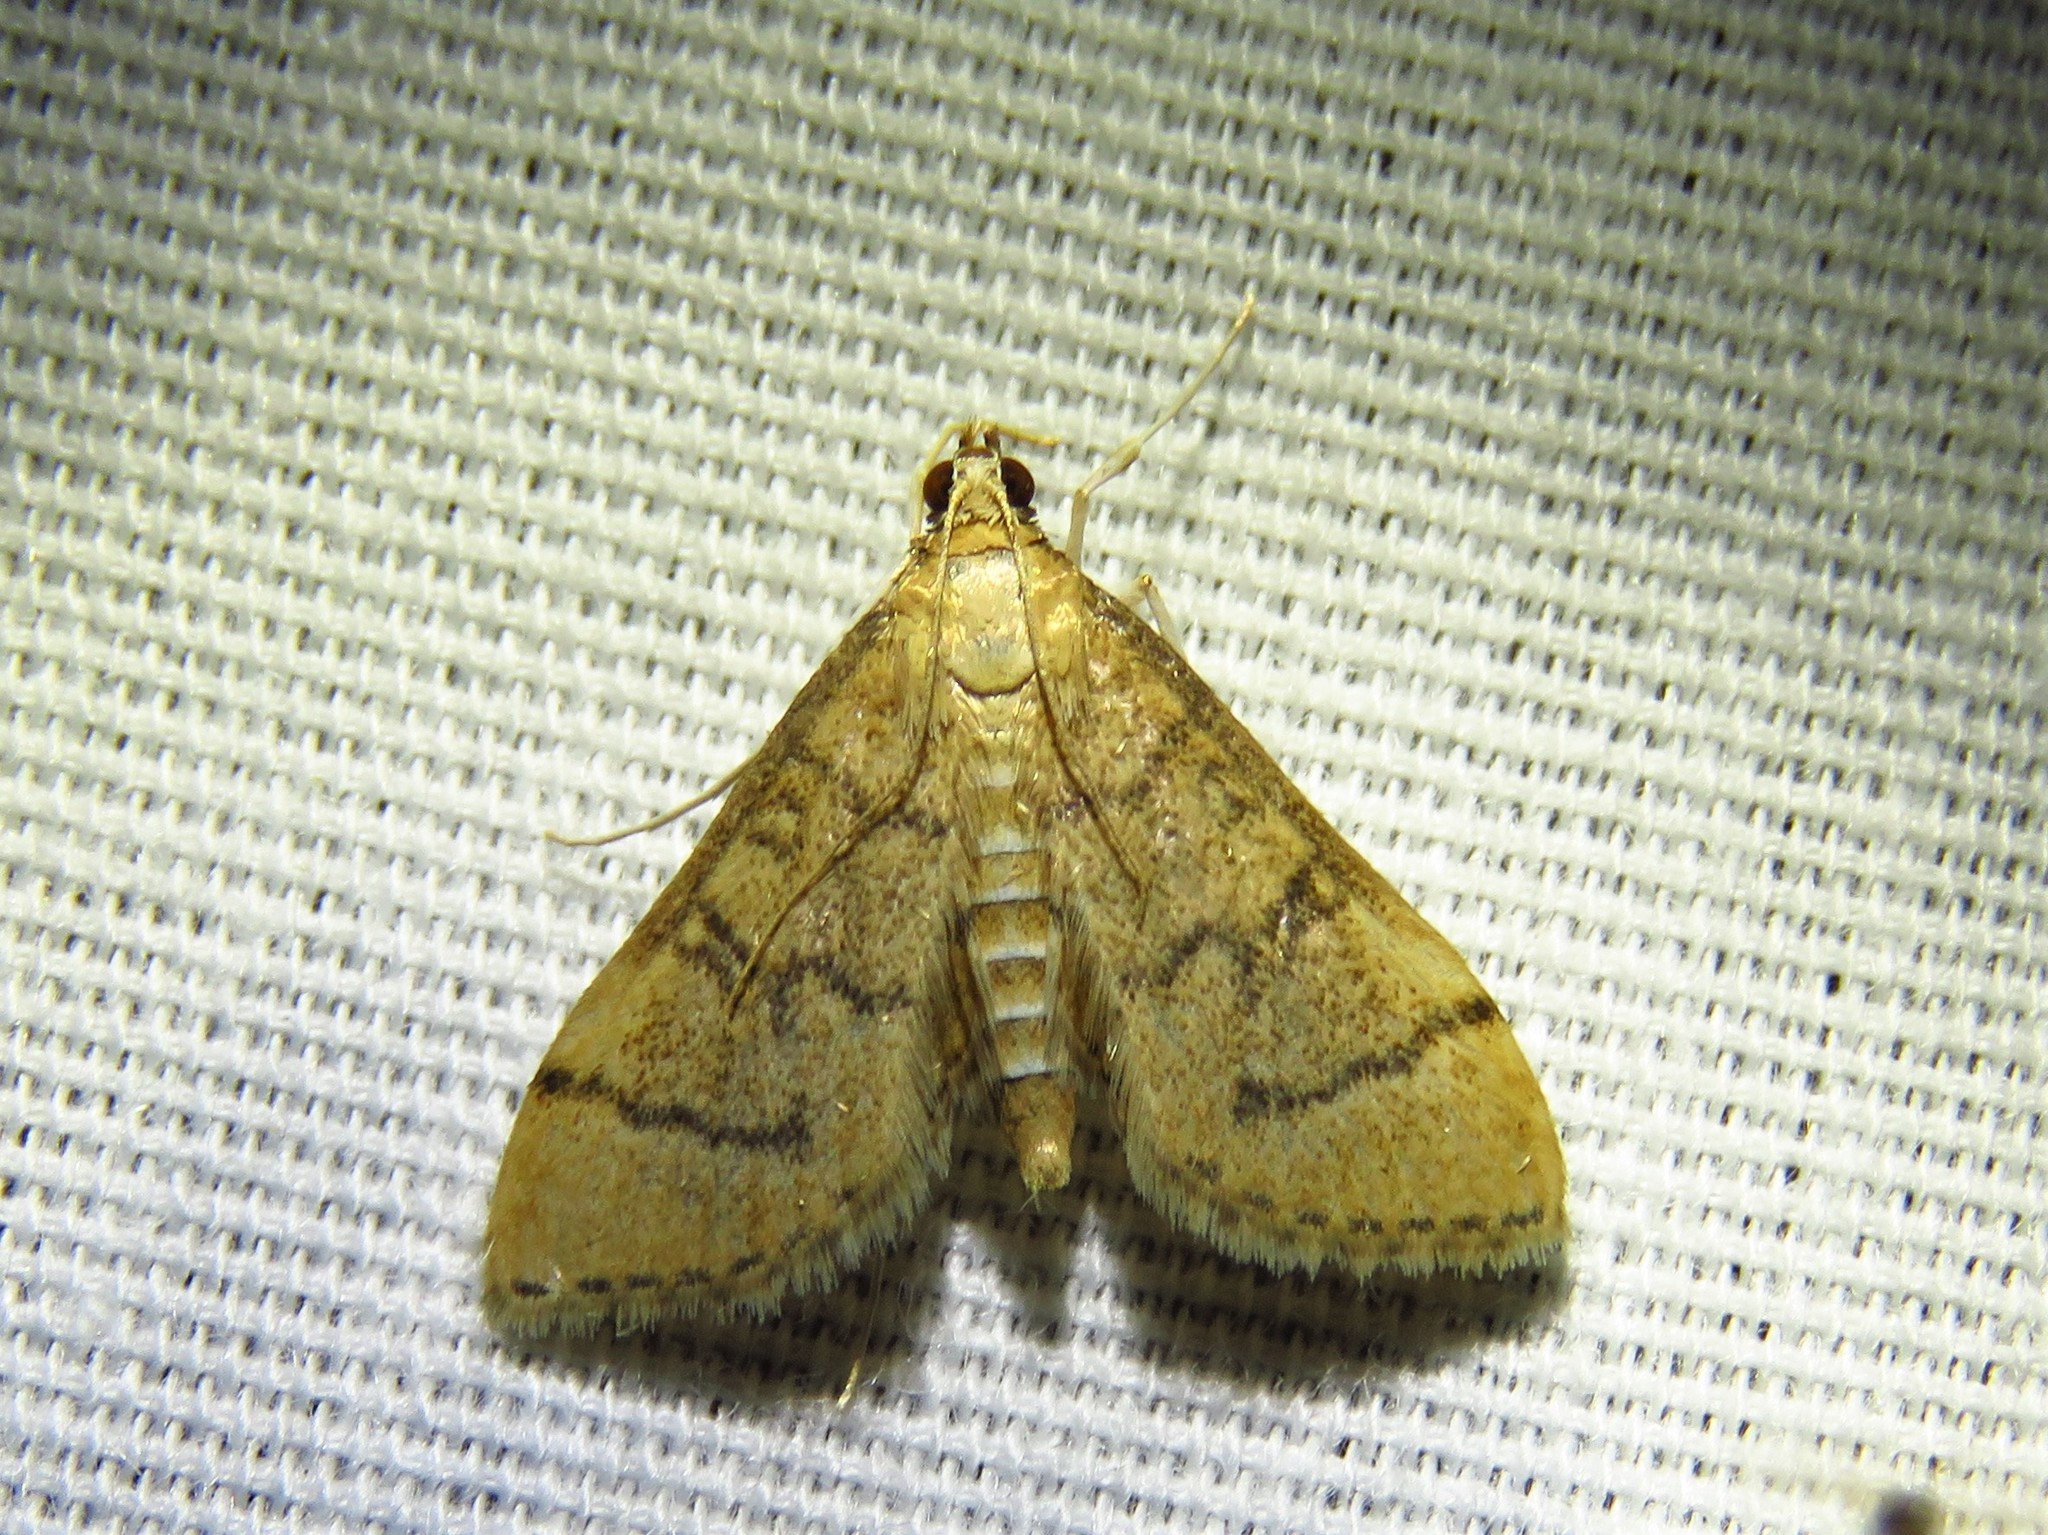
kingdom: Animalia
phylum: Arthropoda
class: Insecta
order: Lepidoptera
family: Crambidae
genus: Lamprosema
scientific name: Lamprosema Blepharomastix ranalis
